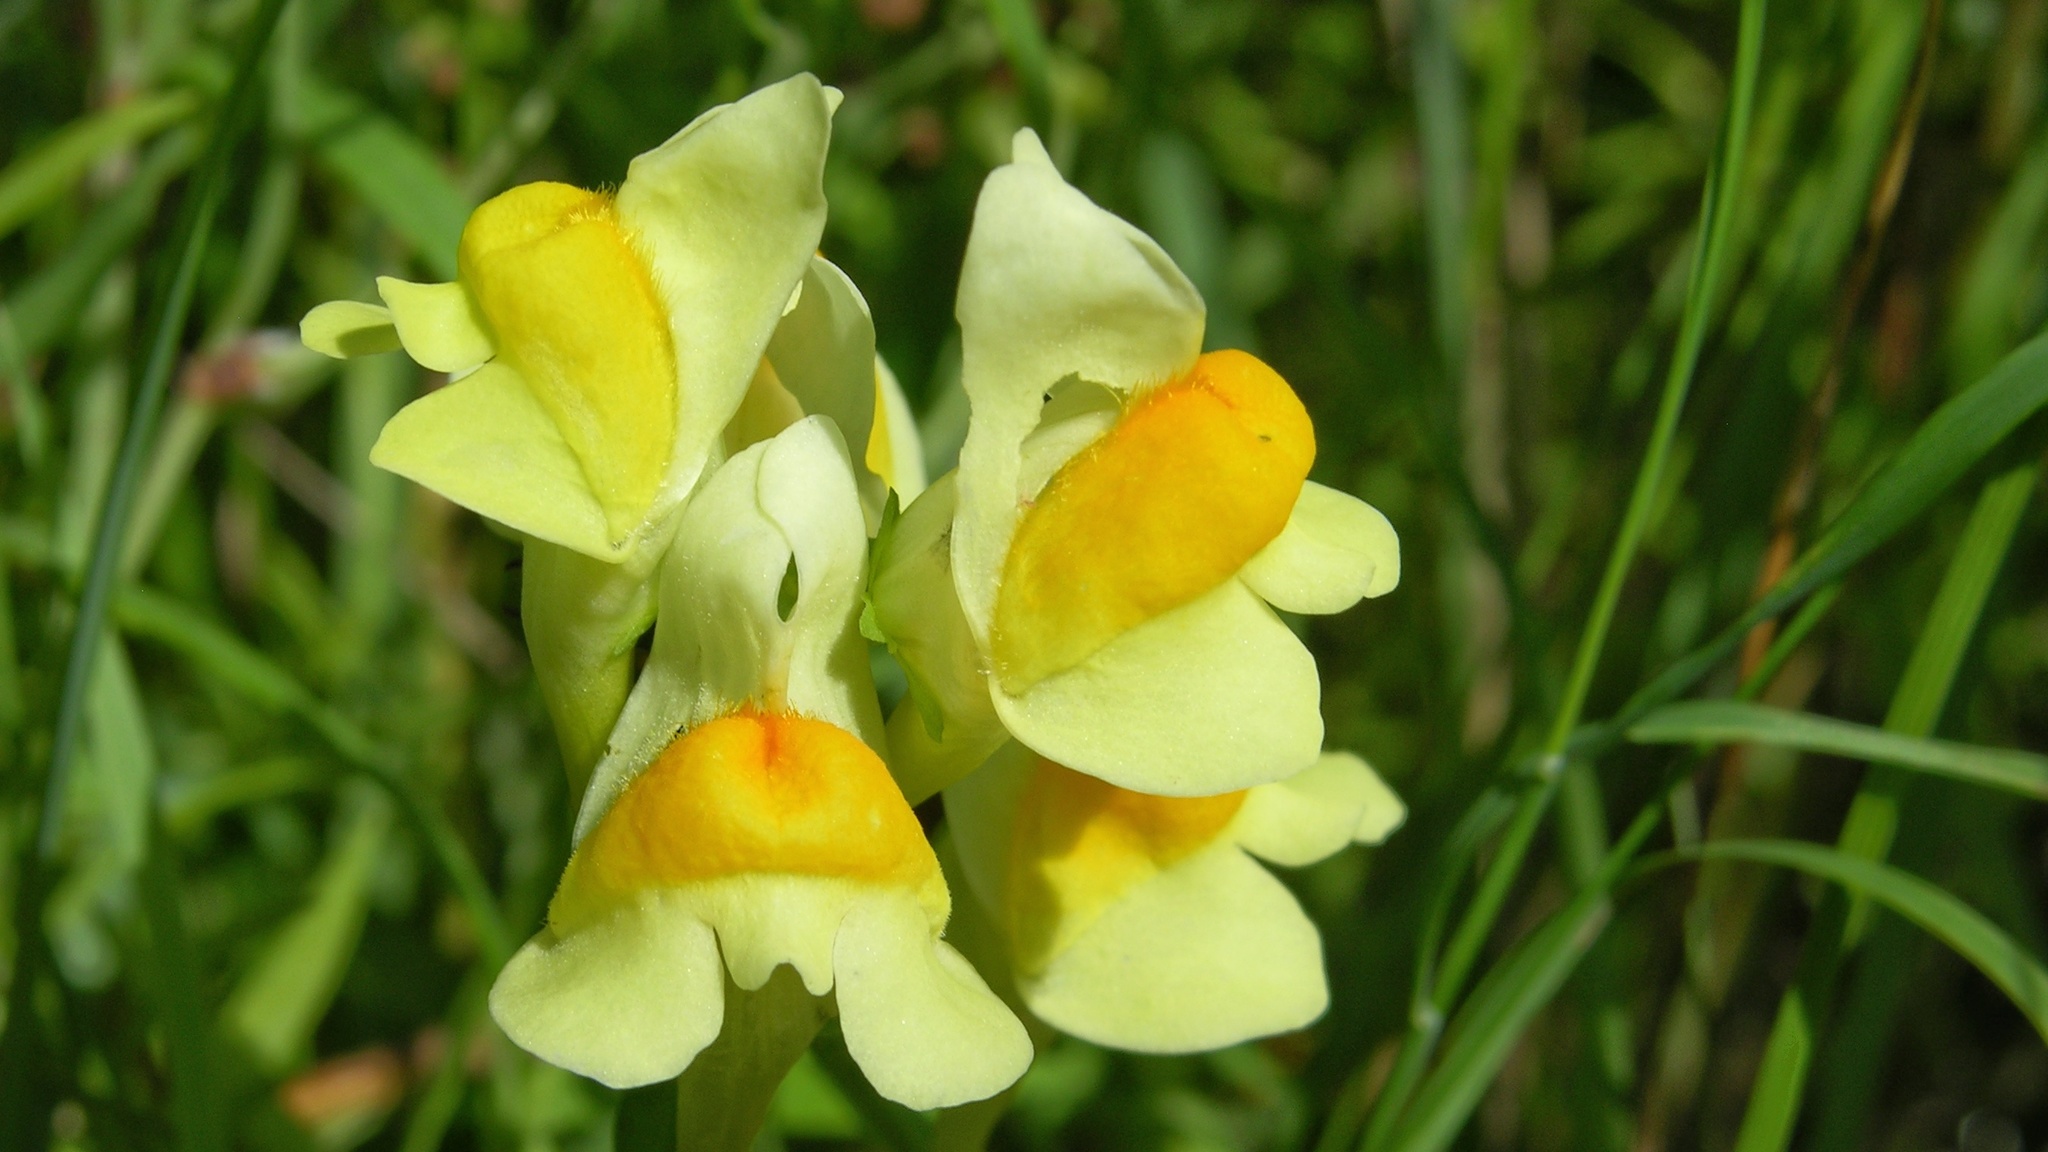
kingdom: Plantae
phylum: Tracheophyta
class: Magnoliopsida
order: Lamiales
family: Plantaginaceae
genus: Linaria
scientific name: Linaria vulgaris
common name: Butter and eggs
